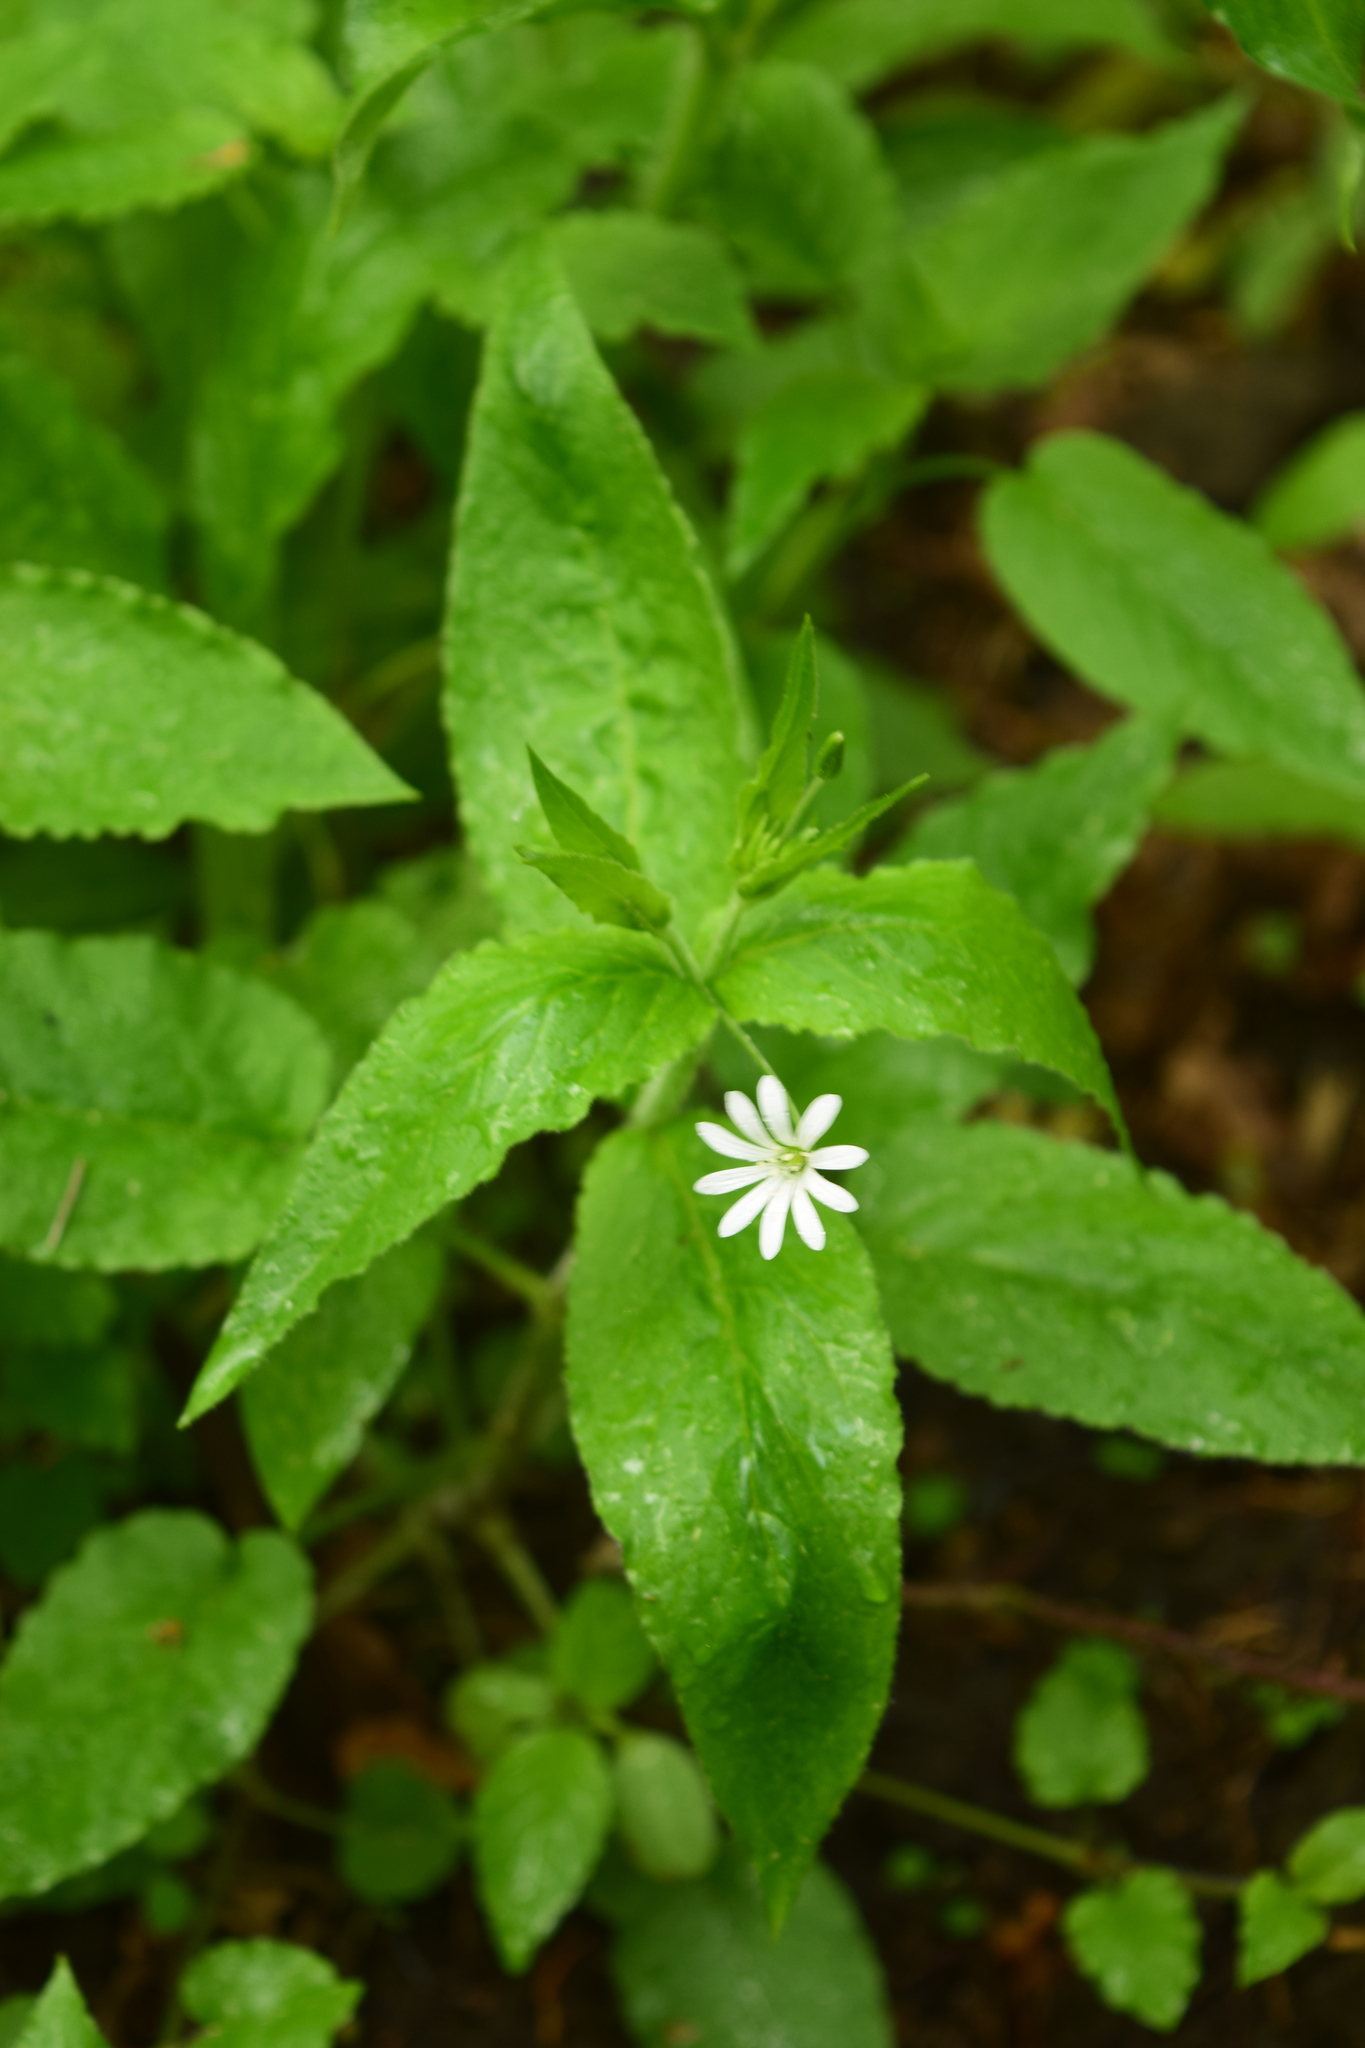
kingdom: Plantae
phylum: Tracheophyta
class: Magnoliopsida
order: Caryophyllales
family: Caryophyllaceae
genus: Stellaria
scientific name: Stellaria nemorum
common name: Wood stitchwort
